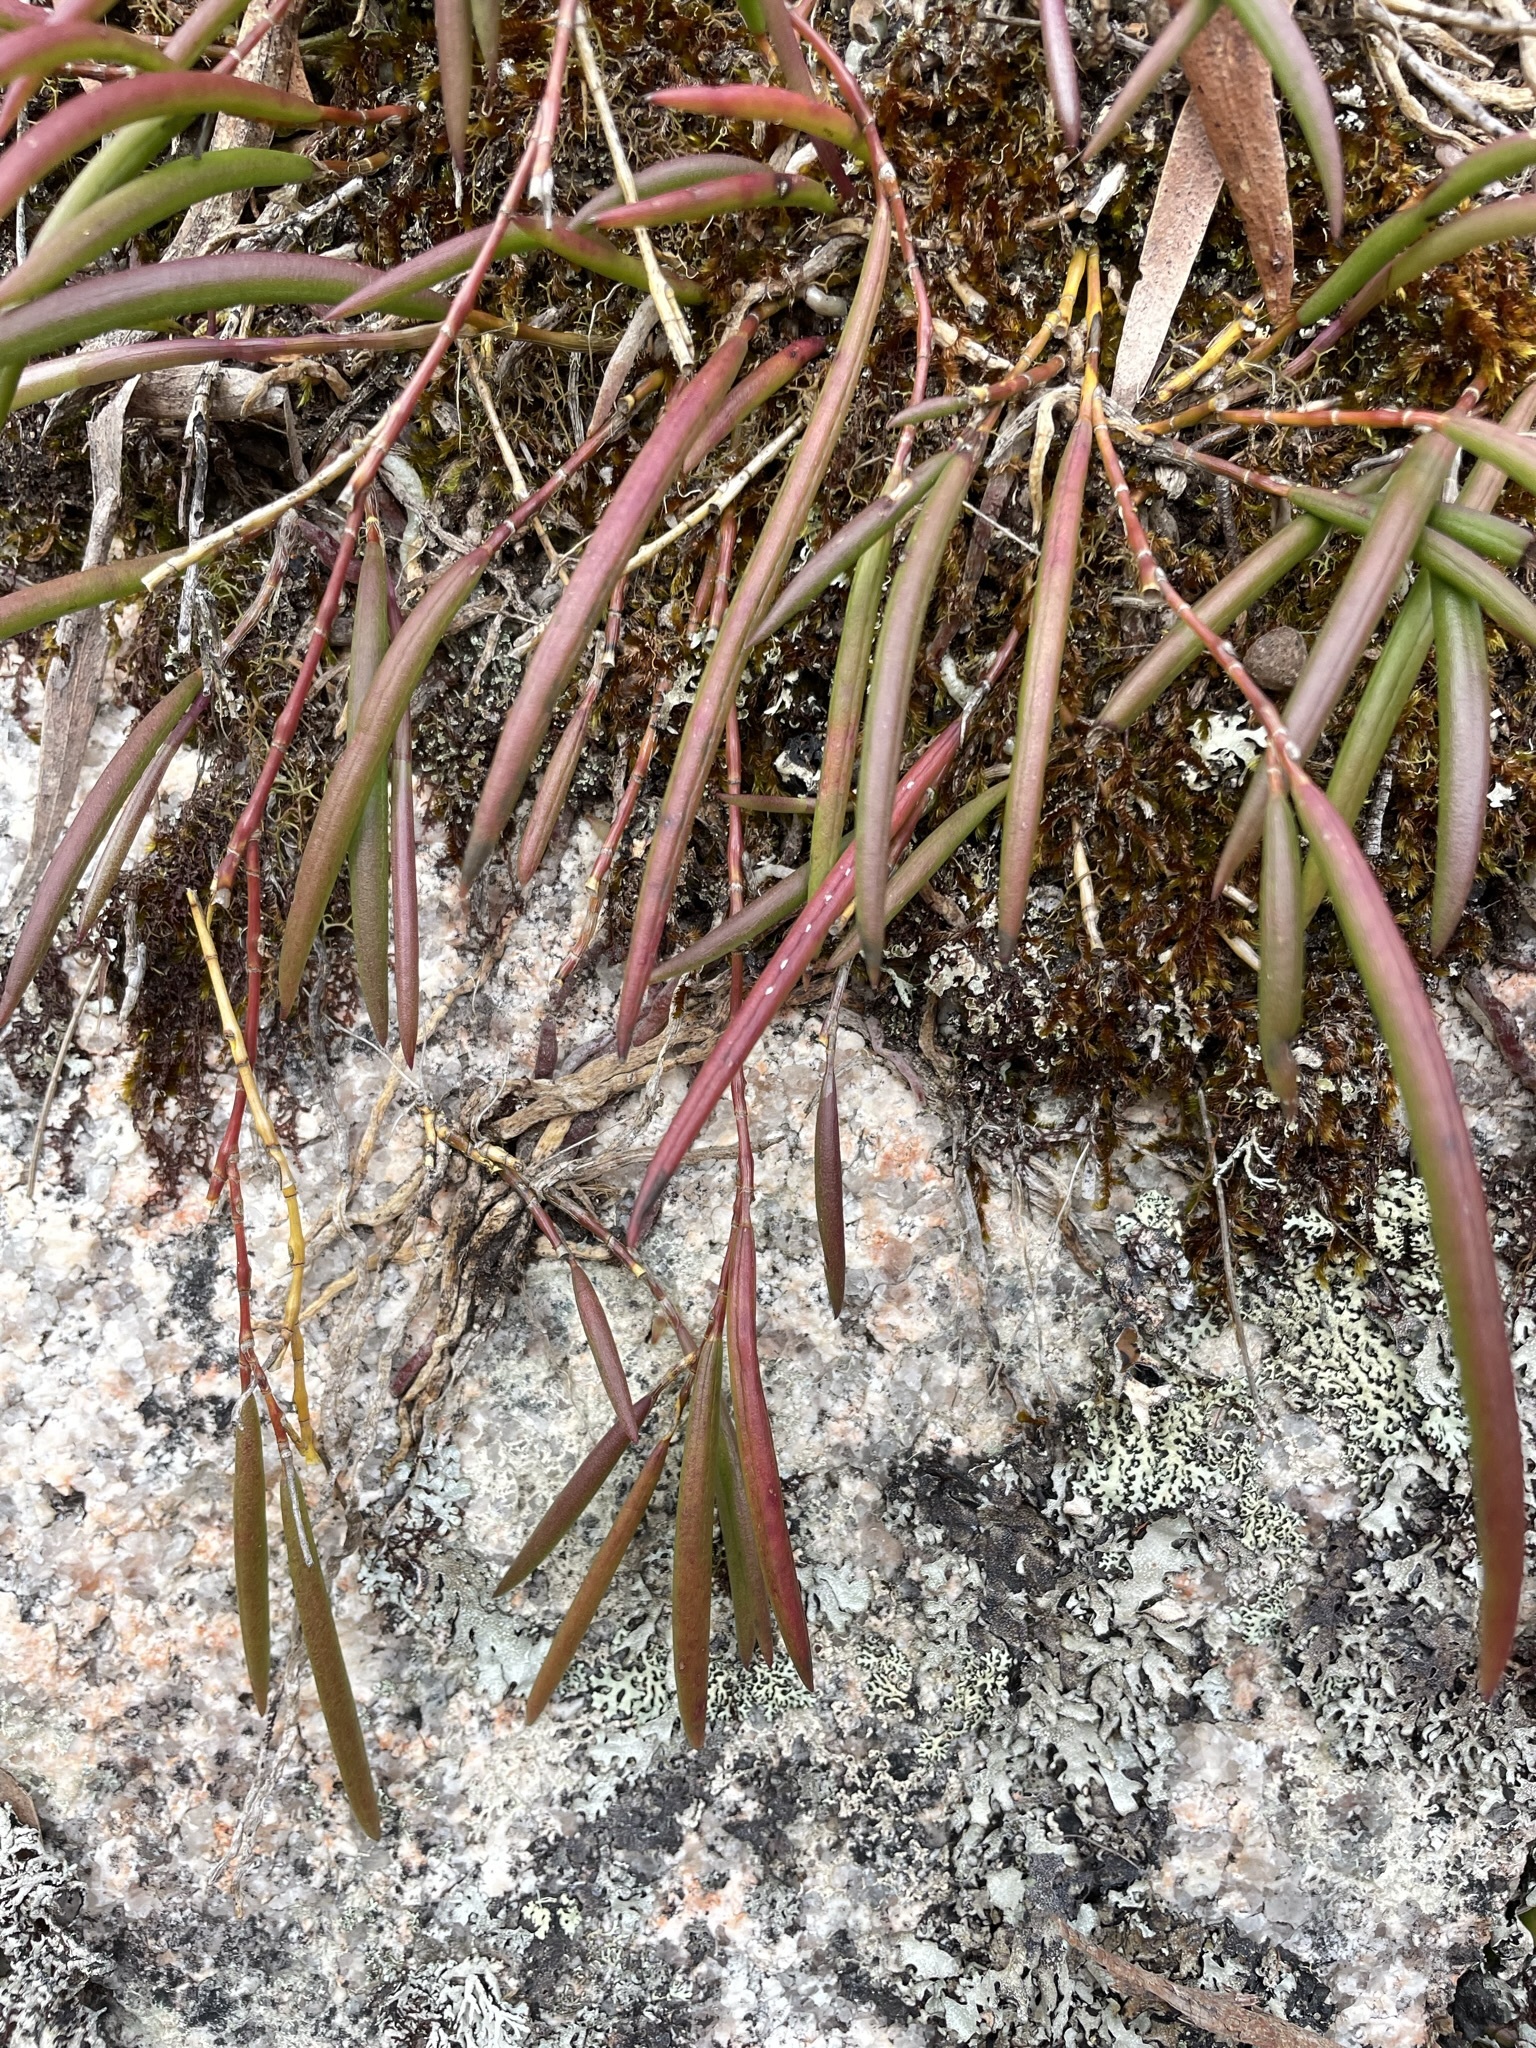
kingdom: Plantae
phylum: Tracheophyta
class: Liliopsida
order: Asparagales
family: Orchidaceae
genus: Dendrobium
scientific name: Dendrobium striolatum
